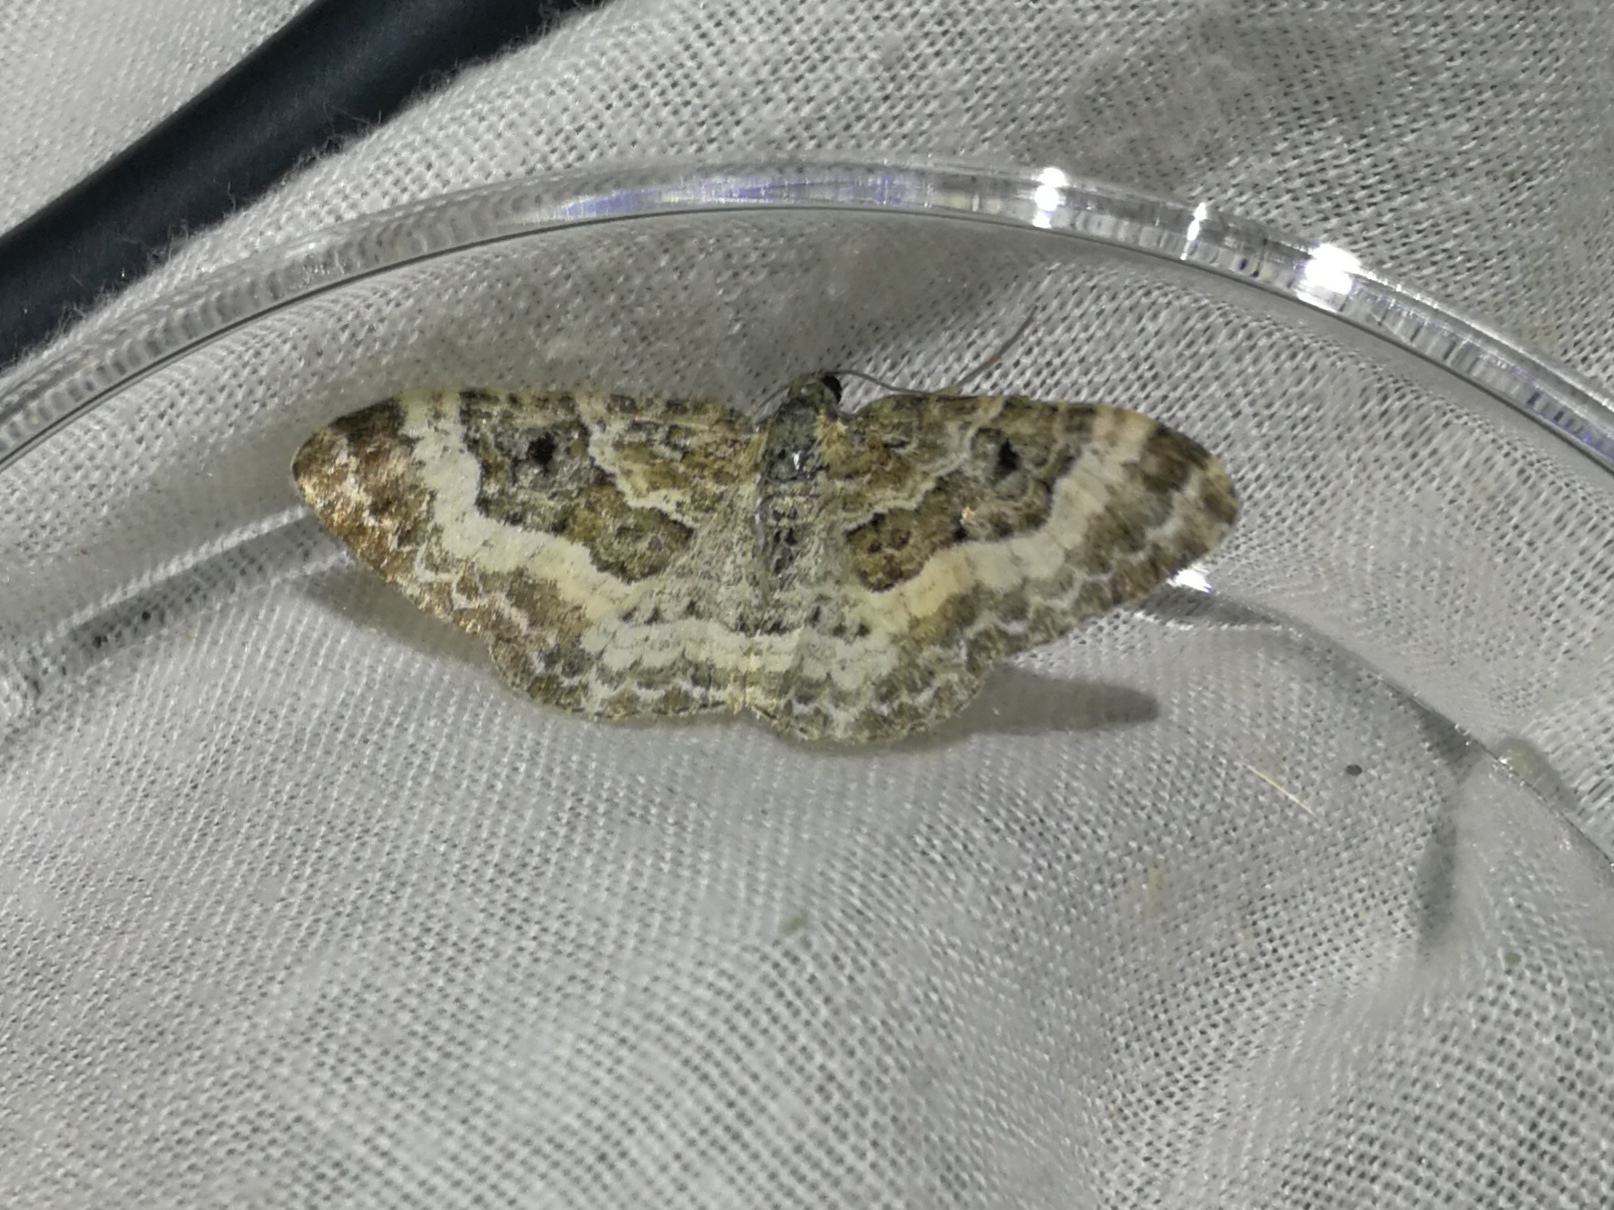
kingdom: Animalia
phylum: Arthropoda
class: Insecta
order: Lepidoptera
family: Geometridae
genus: Epirrhoe
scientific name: Epirrhoe alternata
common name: Common carpet
